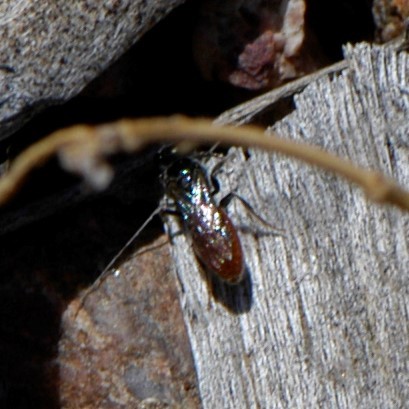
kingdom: Animalia
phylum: Arthropoda
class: Insecta
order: Hymenoptera
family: Halictidae
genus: Sphecodes
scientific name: Sphecodes
